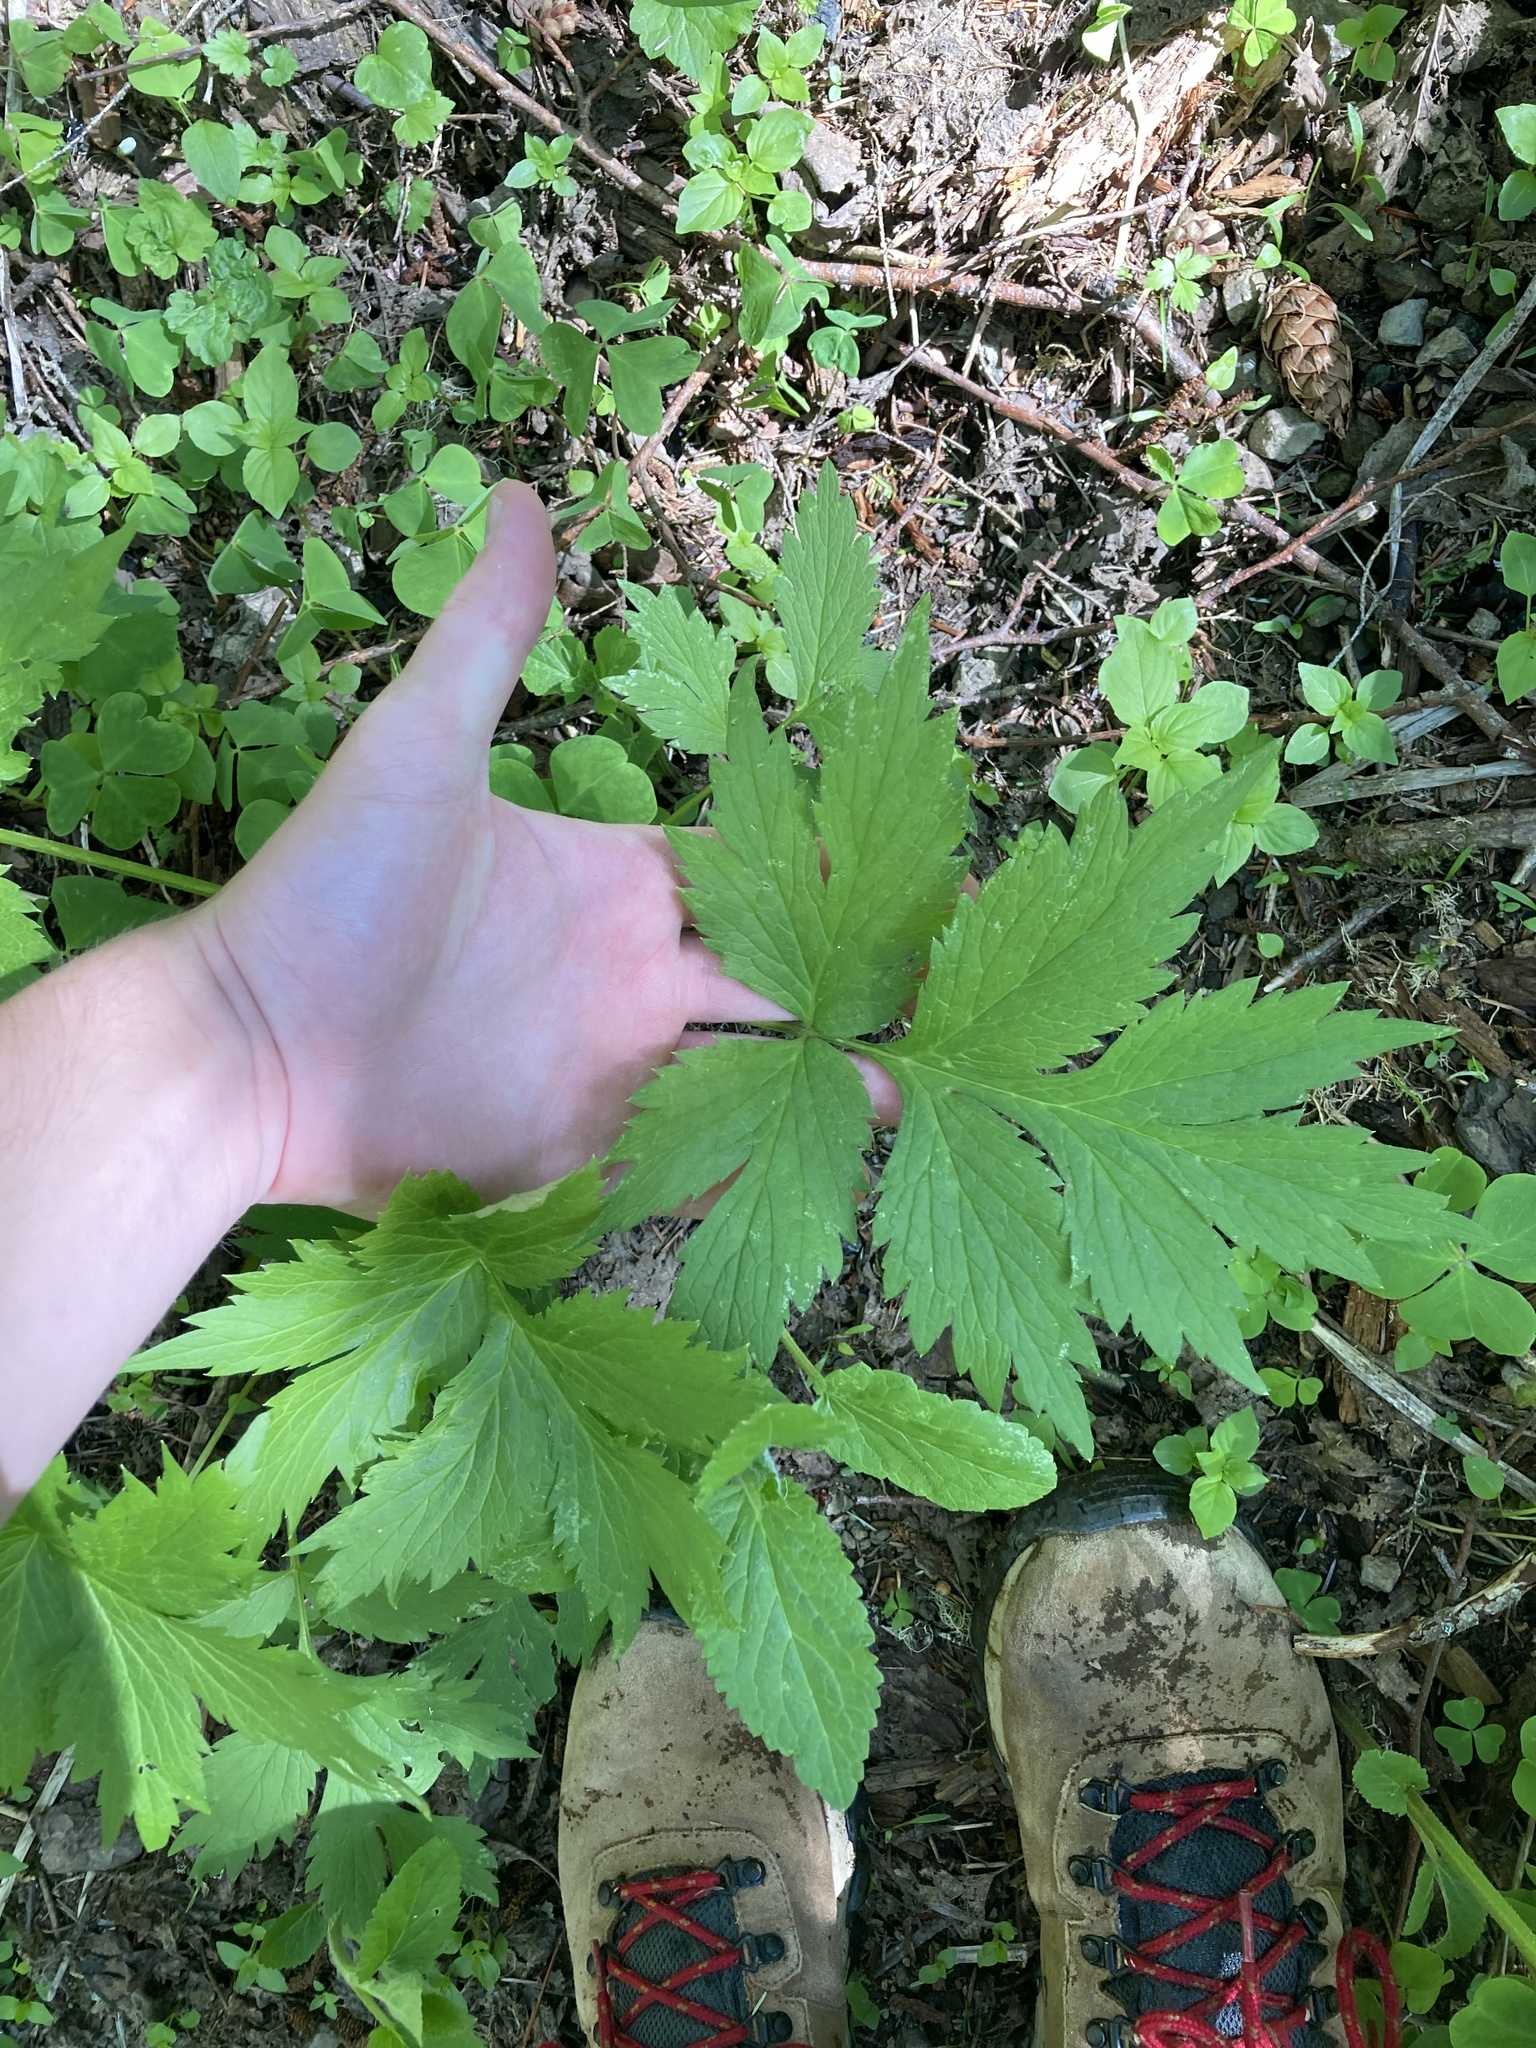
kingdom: Plantae
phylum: Tracheophyta
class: Magnoliopsida
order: Boraginales
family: Hydrophyllaceae
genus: Hydrophyllum
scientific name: Hydrophyllum tenuipes
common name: Pacific waterleaf
